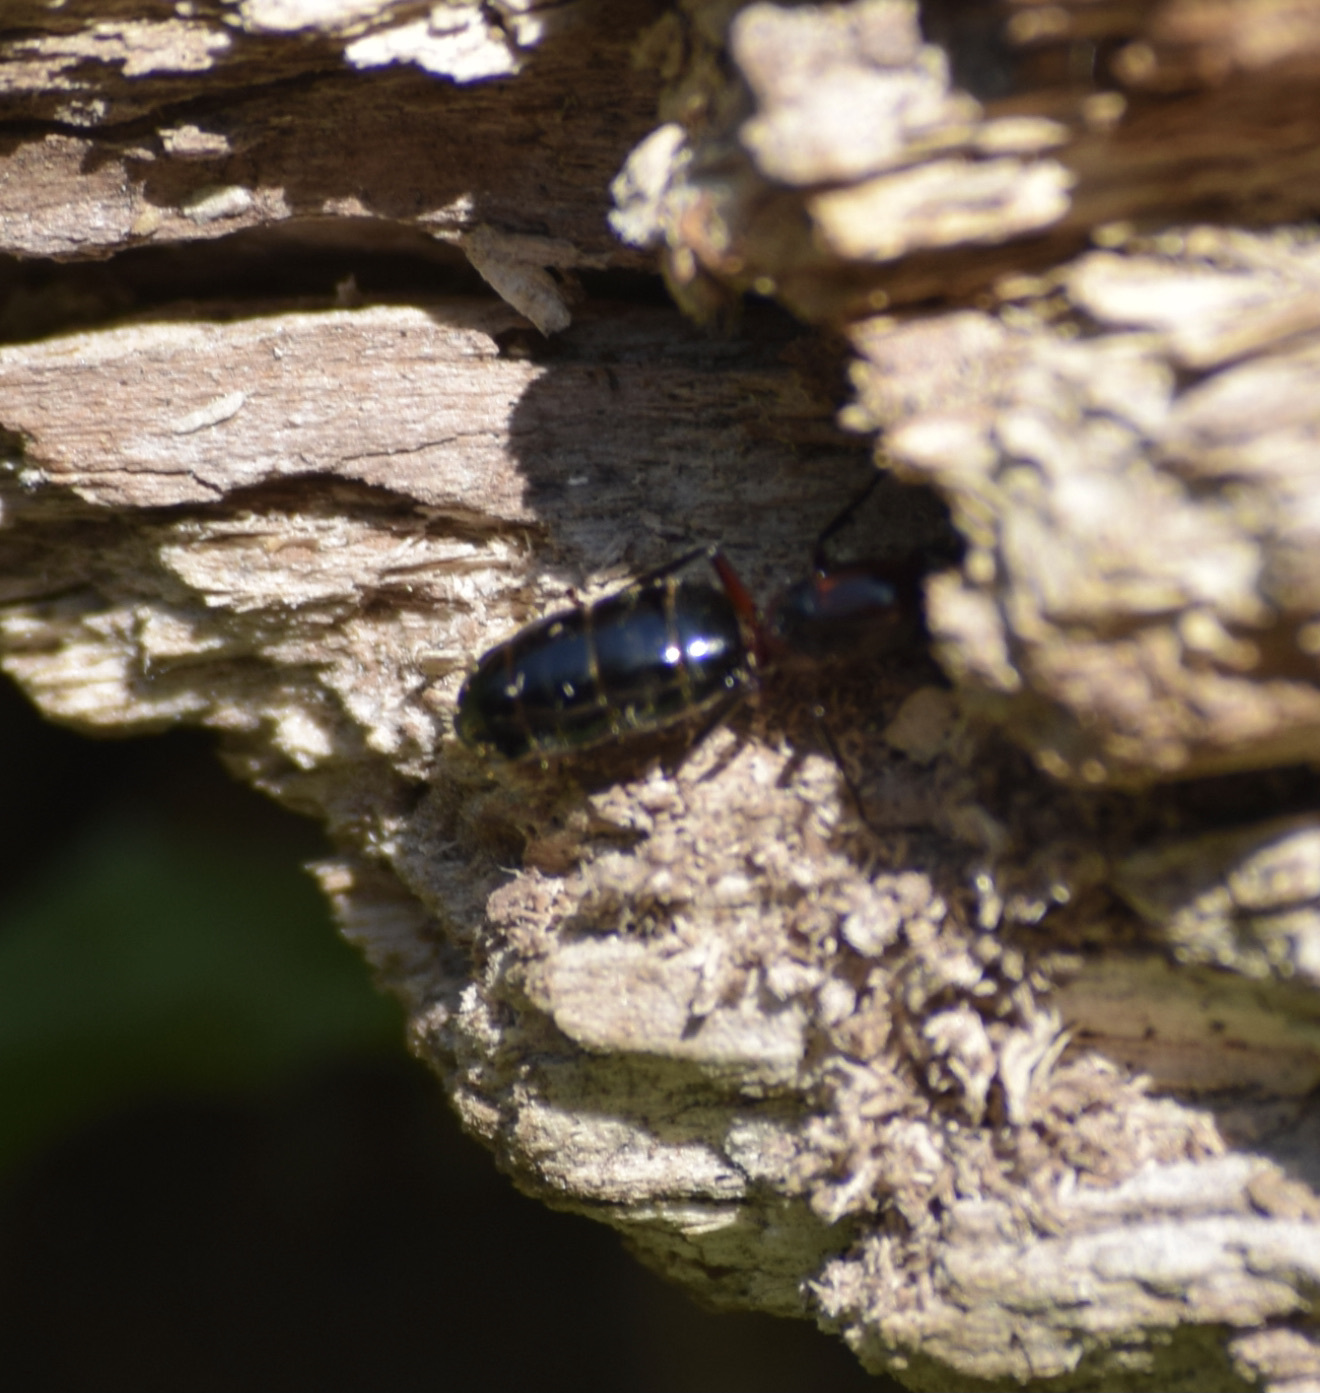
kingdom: Animalia
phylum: Arthropoda
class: Insecta
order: Hymenoptera
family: Formicidae
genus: Camponotus
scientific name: Camponotus novaeboracensis
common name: New york carpenter ant
